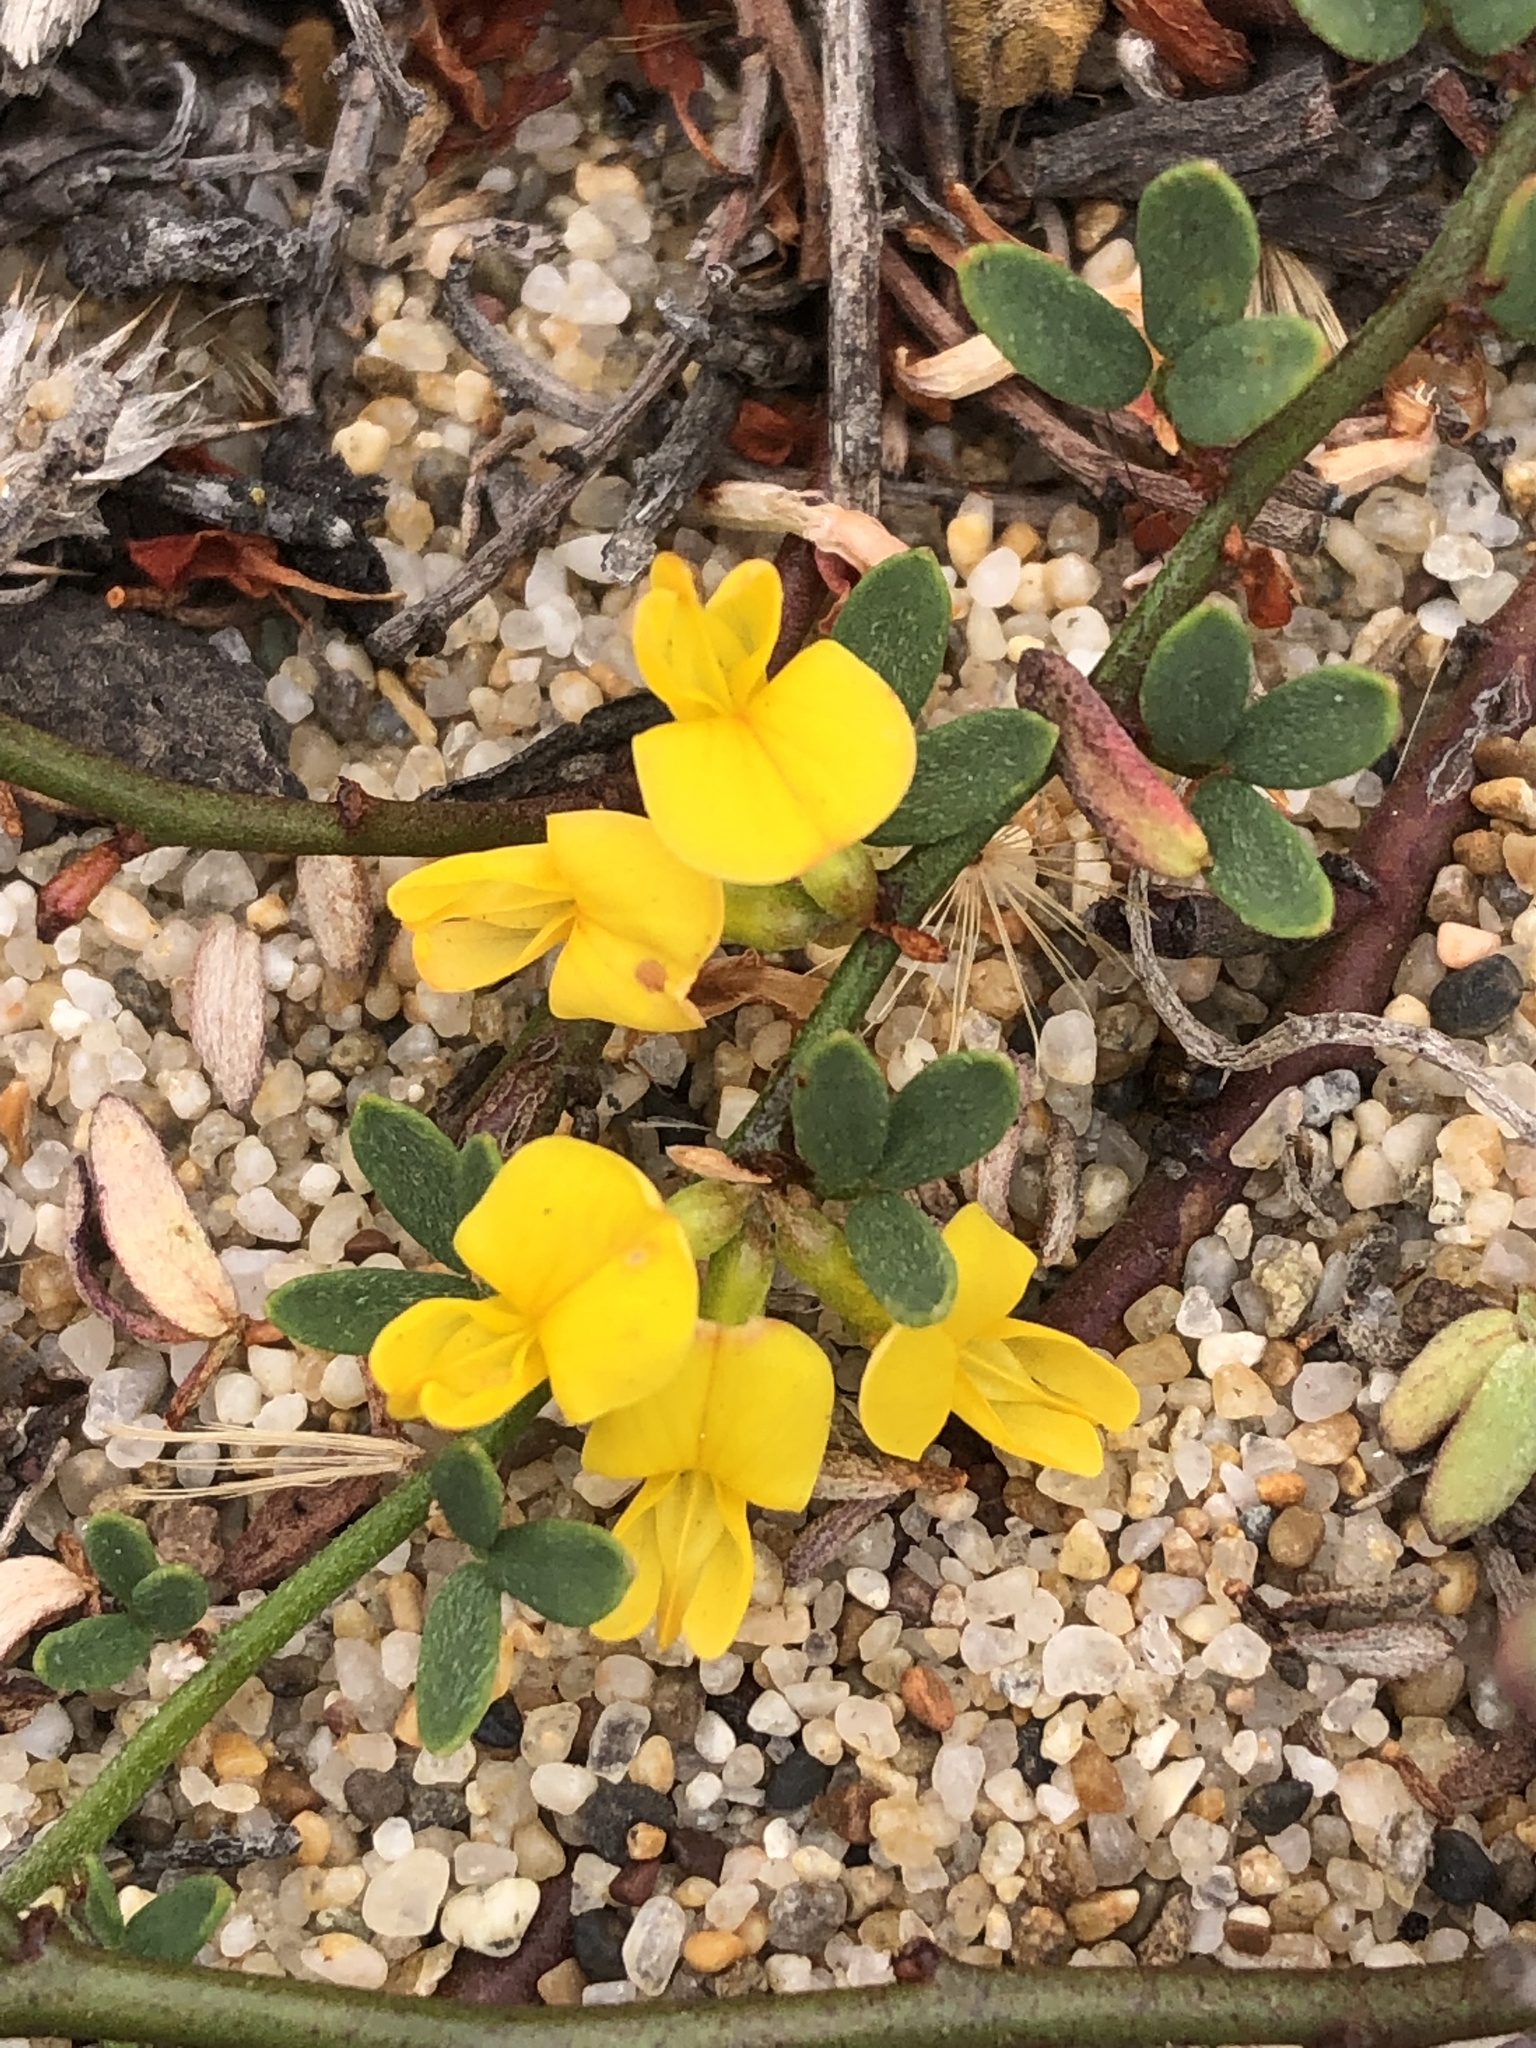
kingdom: Plantae
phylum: Tracheophyta
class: Magnoliopsida
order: Fabales
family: Fabaceae
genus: Acmispon
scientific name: Acmispon glaber
